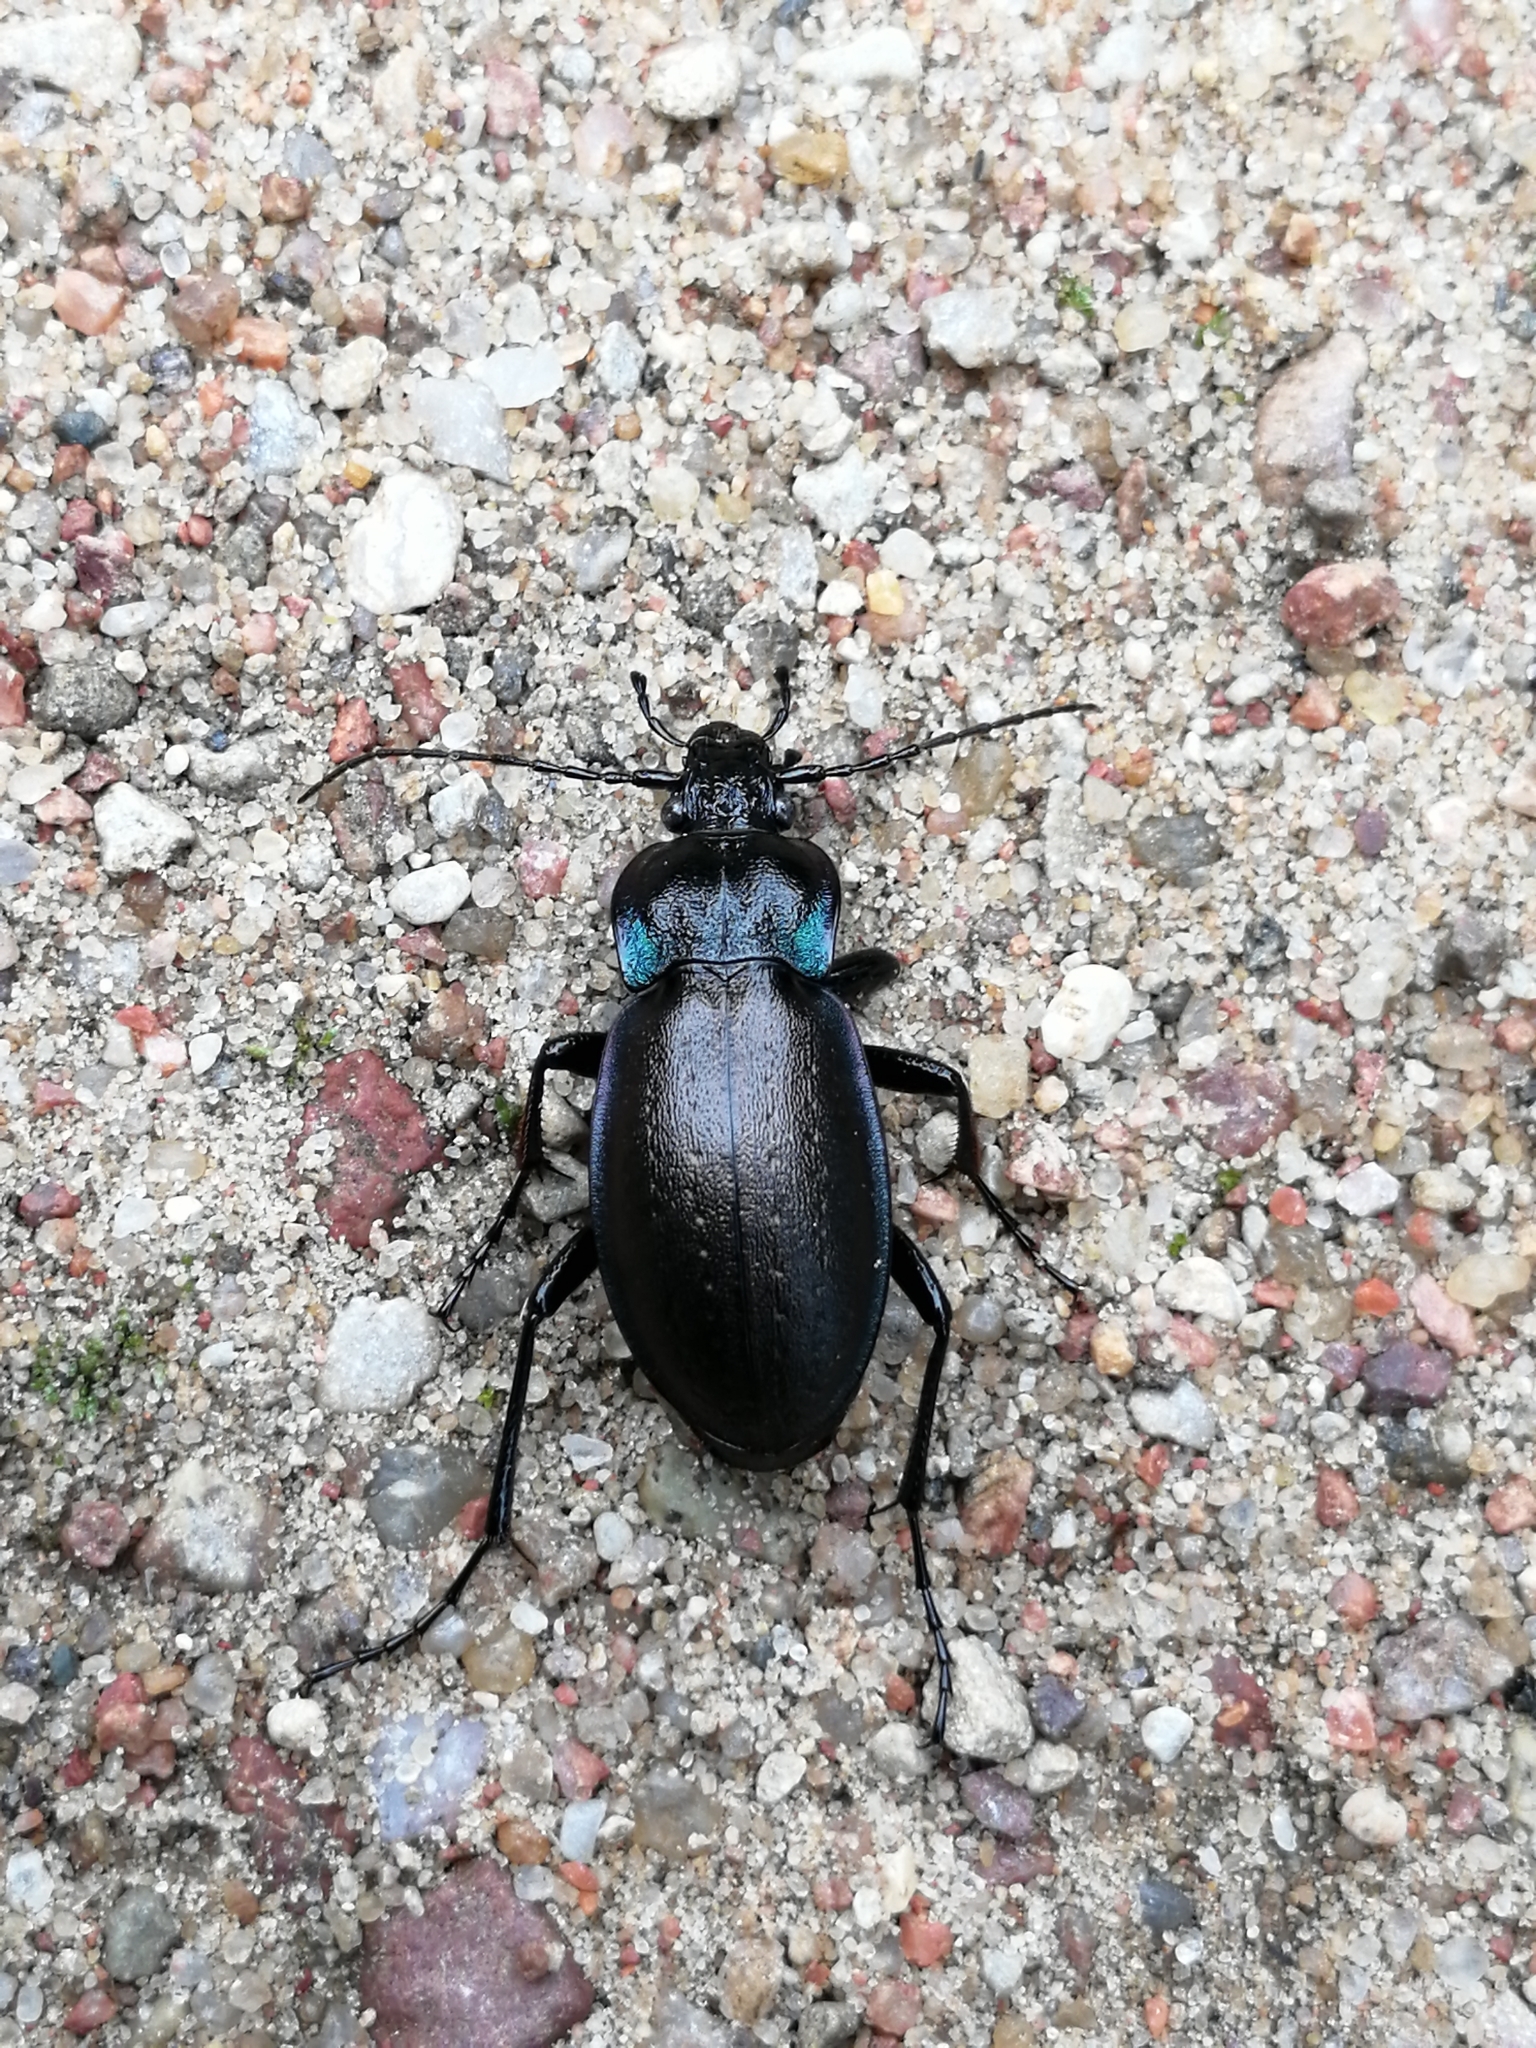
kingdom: Animalia
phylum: Arthropoda
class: Insecta
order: Coleoptera
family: Carabidae
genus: Carabus
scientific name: Carabus nemoralis
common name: European ground beetle
